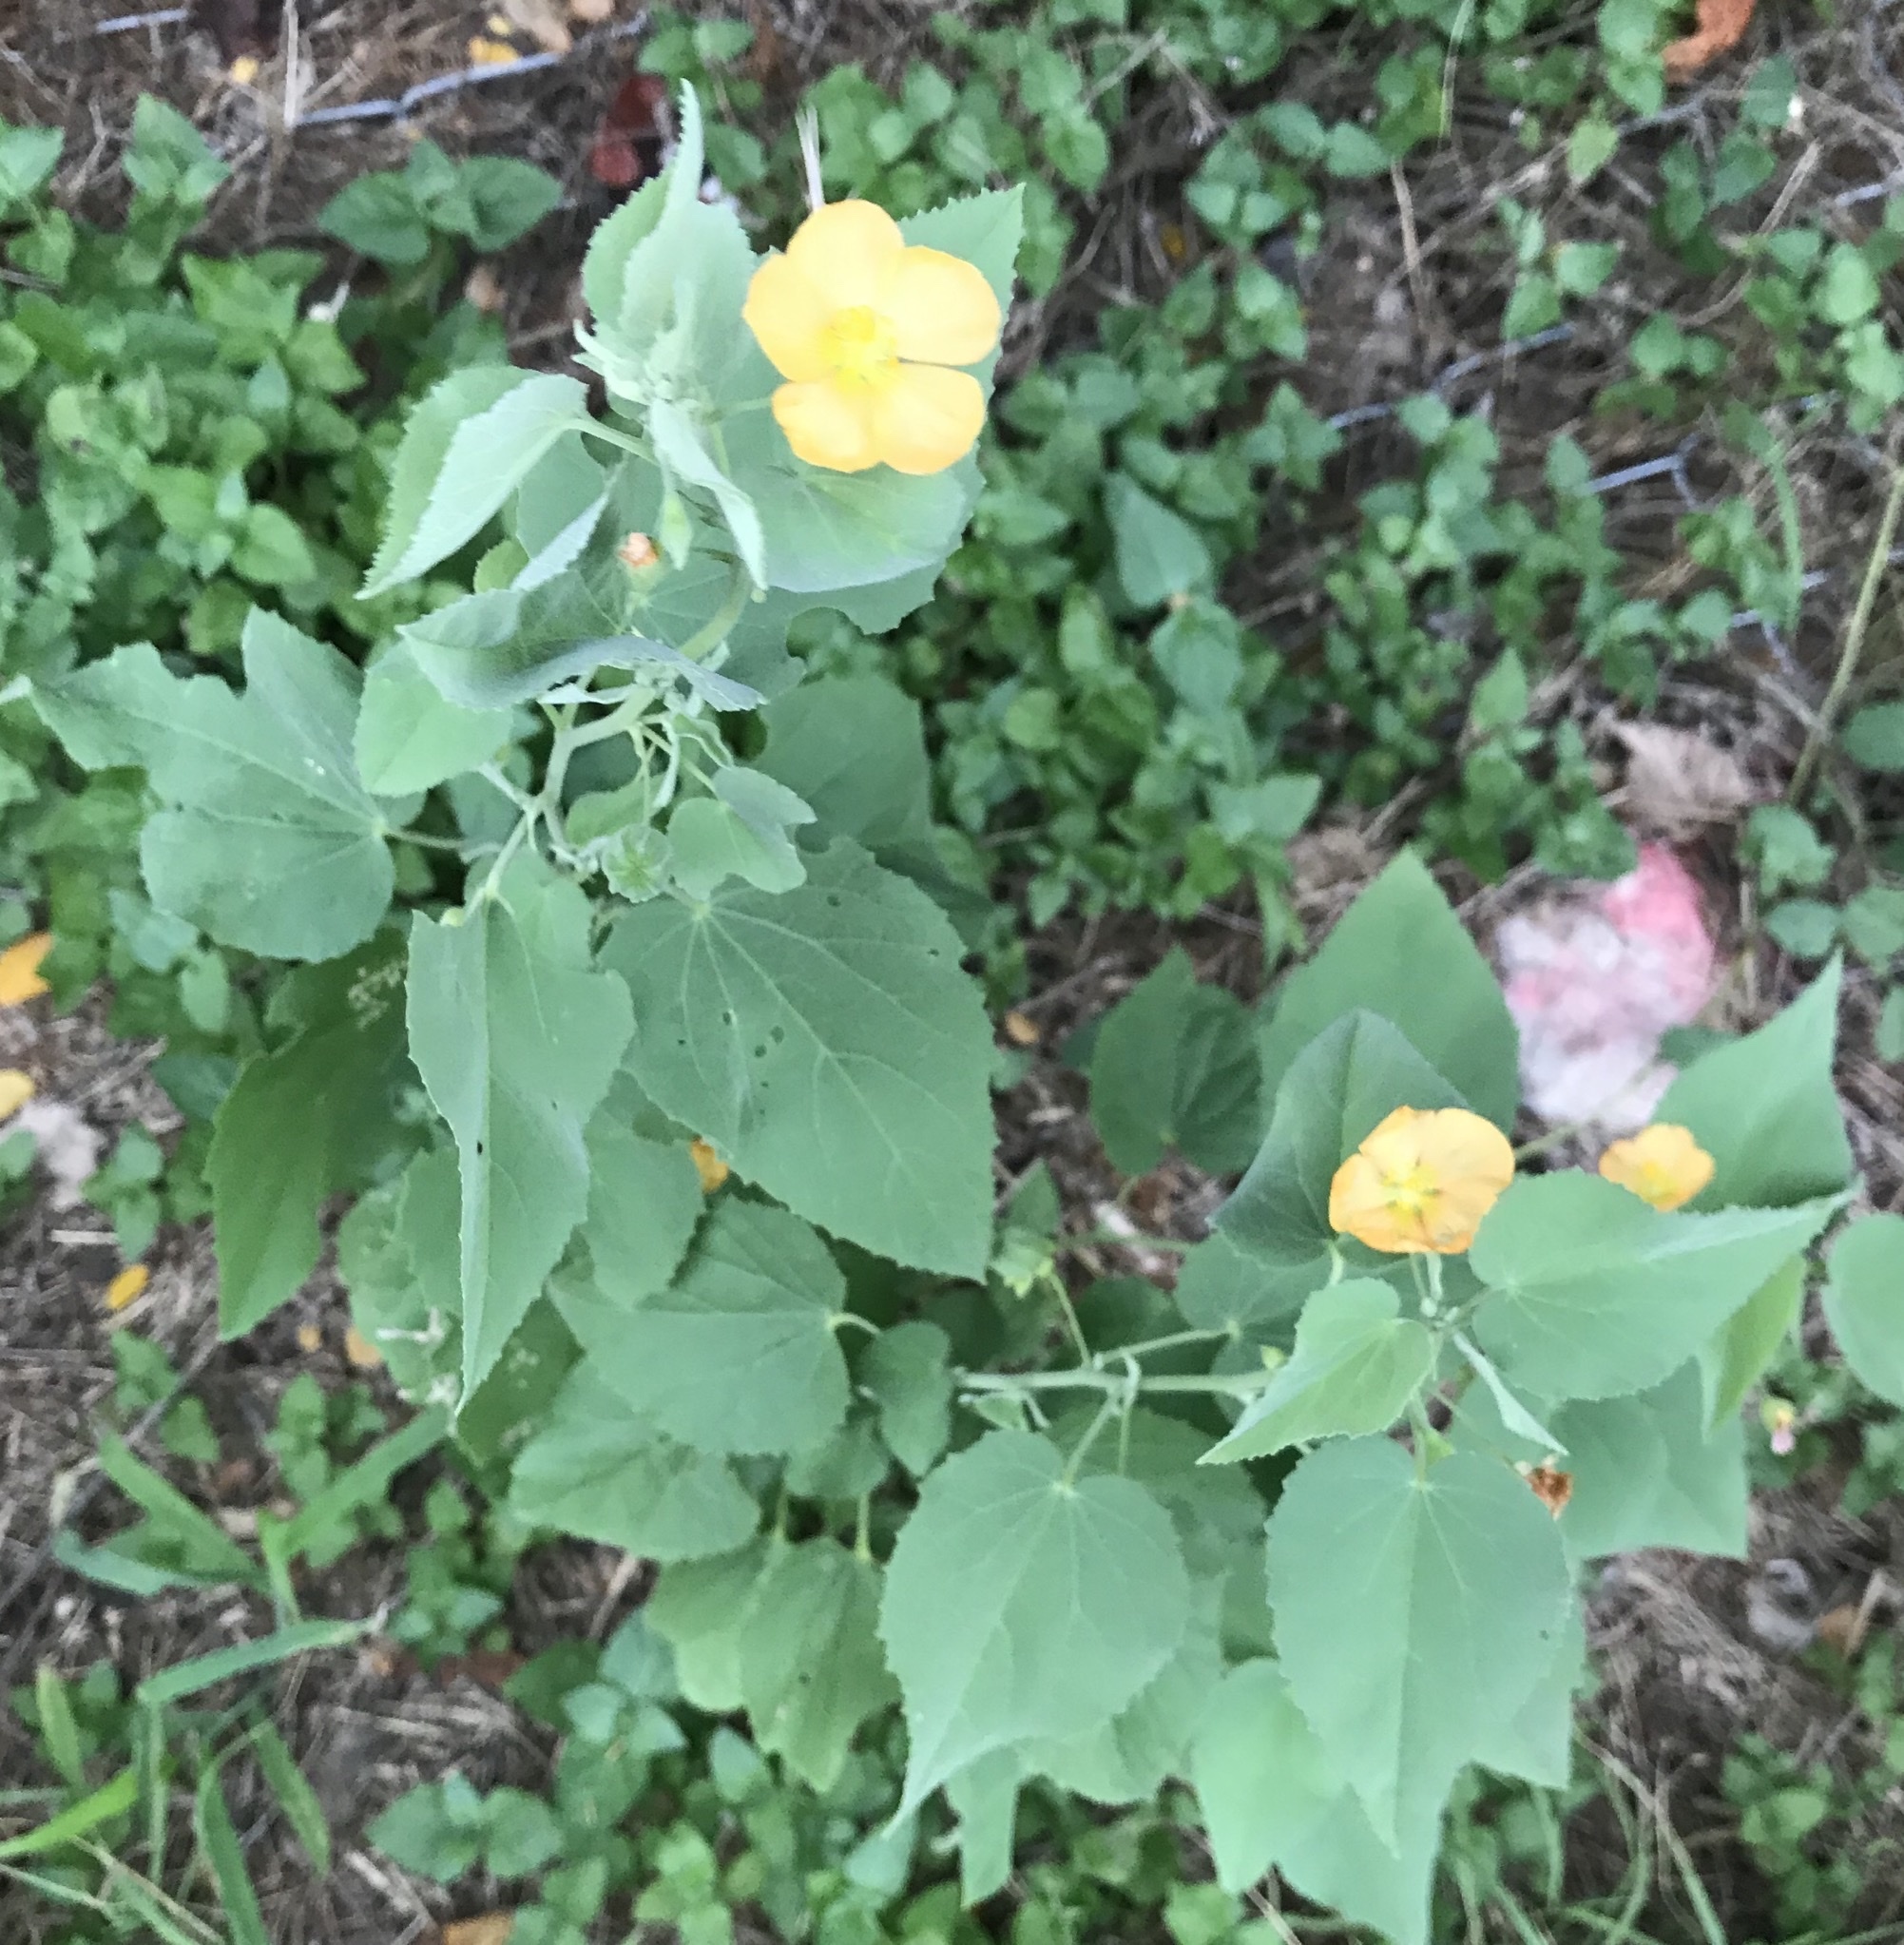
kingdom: Plantae
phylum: Tracheophyta
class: Magnoliopsida
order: Malvales
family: Malvaceae
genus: Abutilon
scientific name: Abutilon fruticosum
